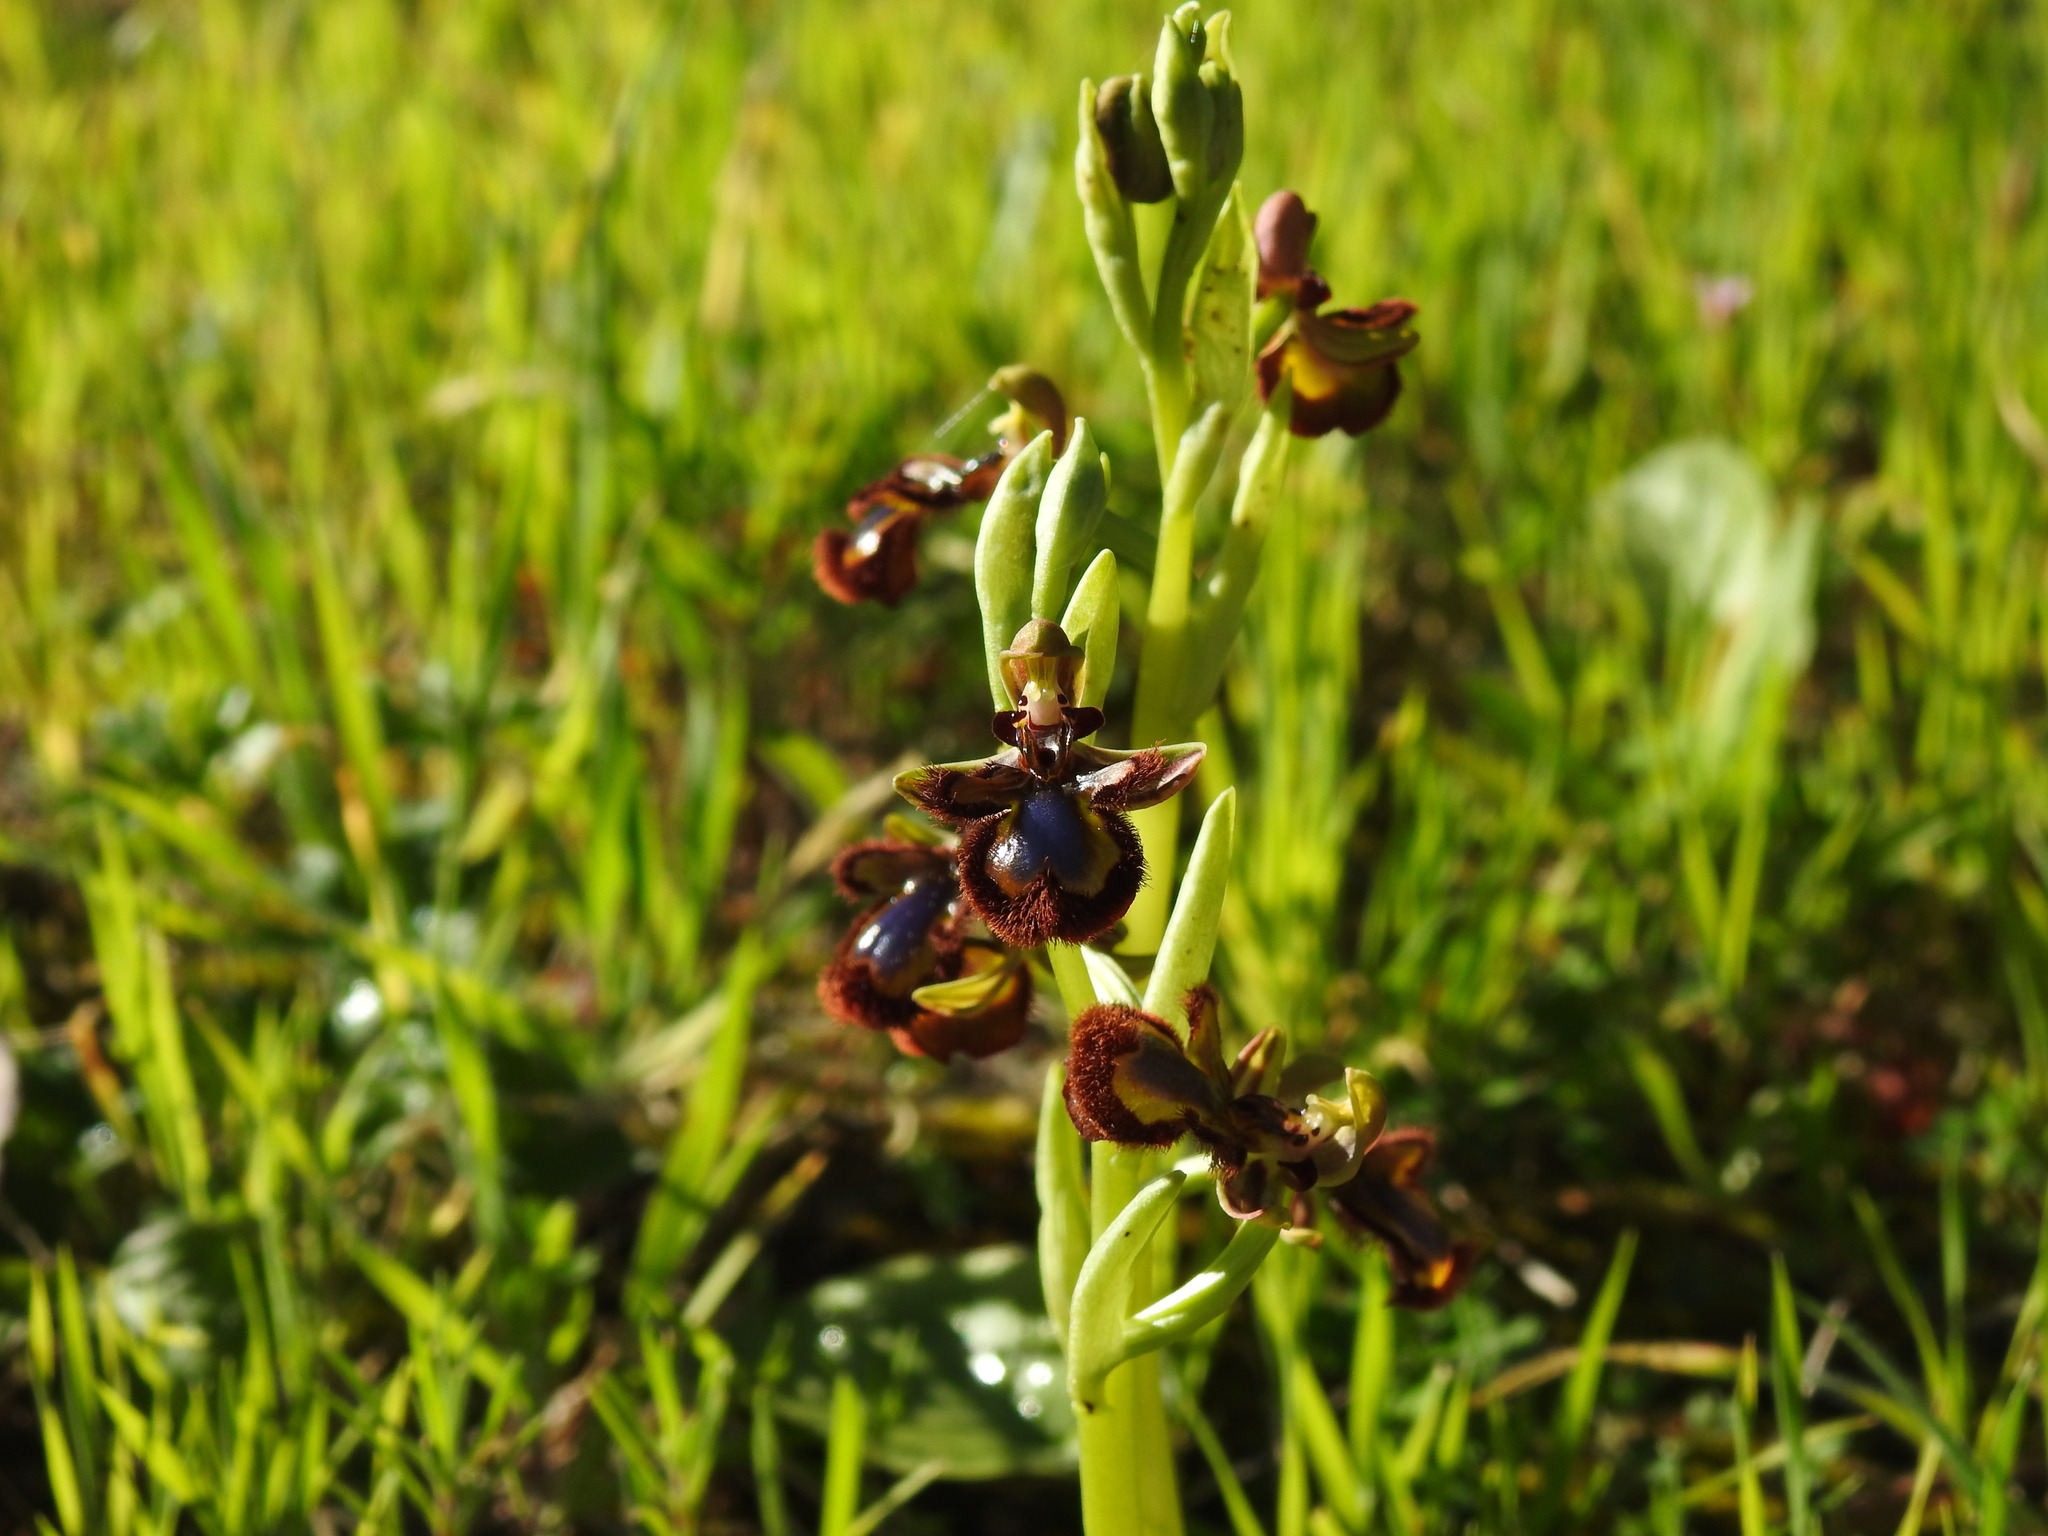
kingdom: Plantae
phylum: Tracheophyta
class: Liliopsida
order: Asparagales
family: Orchidaceae
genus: Ophrys
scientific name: Ophrys speculum
